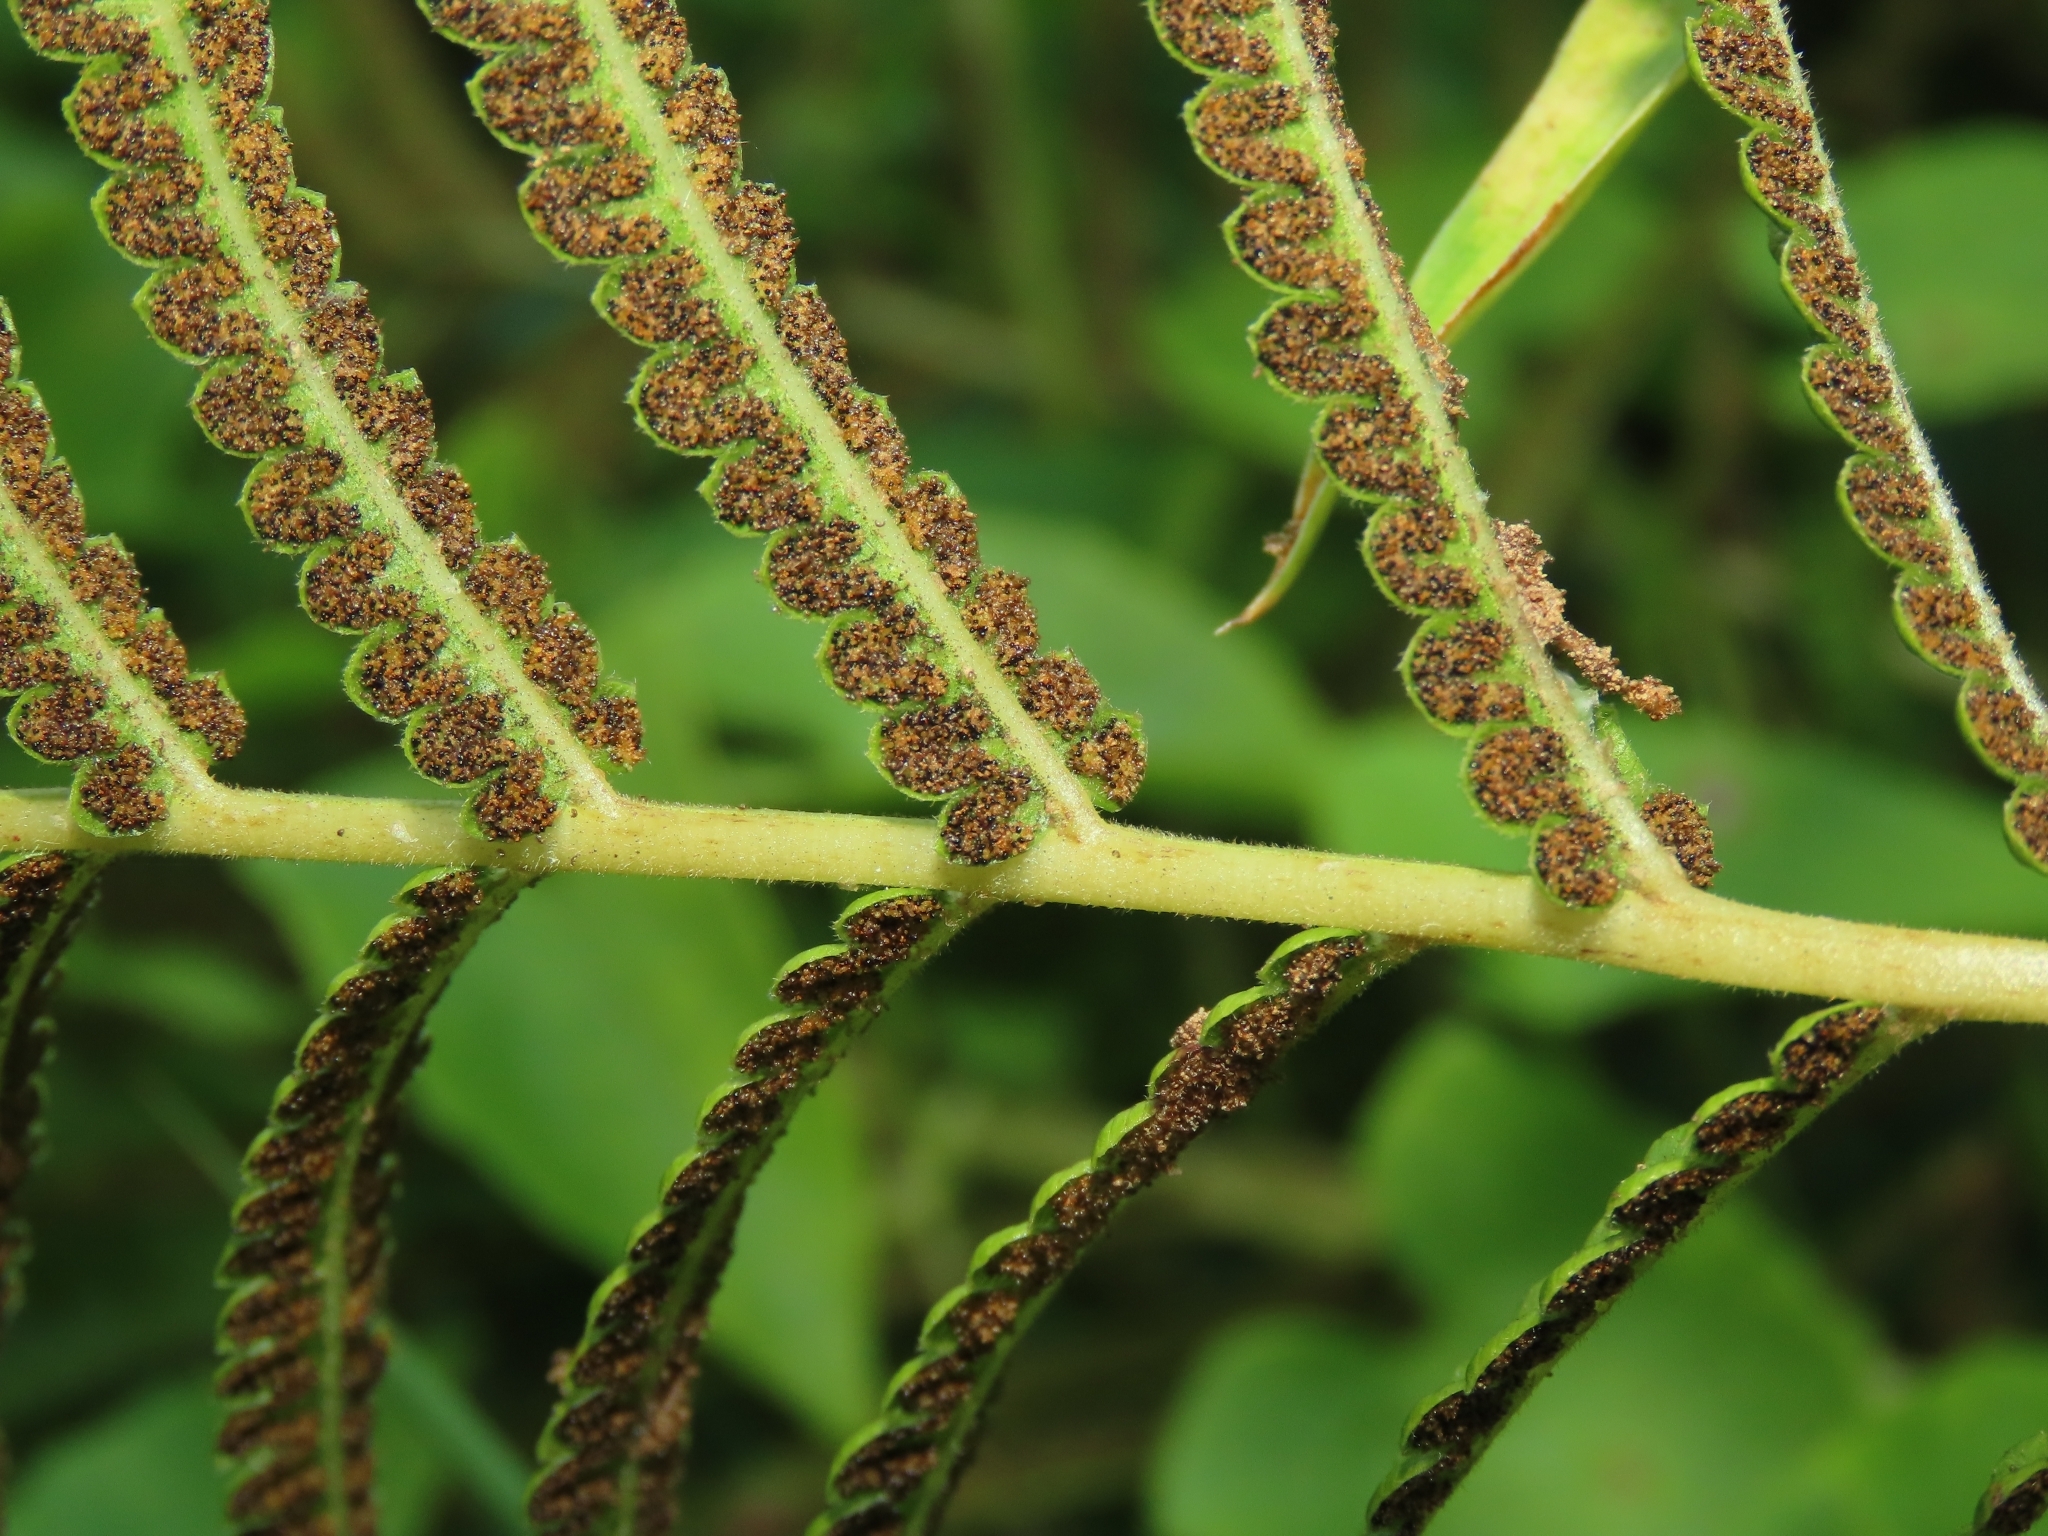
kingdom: Plantae
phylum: Tracheophyta
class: Polypodiopsida
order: Polypodiales
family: Thelypteridaceae
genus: Cyclosorus
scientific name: Cyclosorus interruptus
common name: Neke fern
